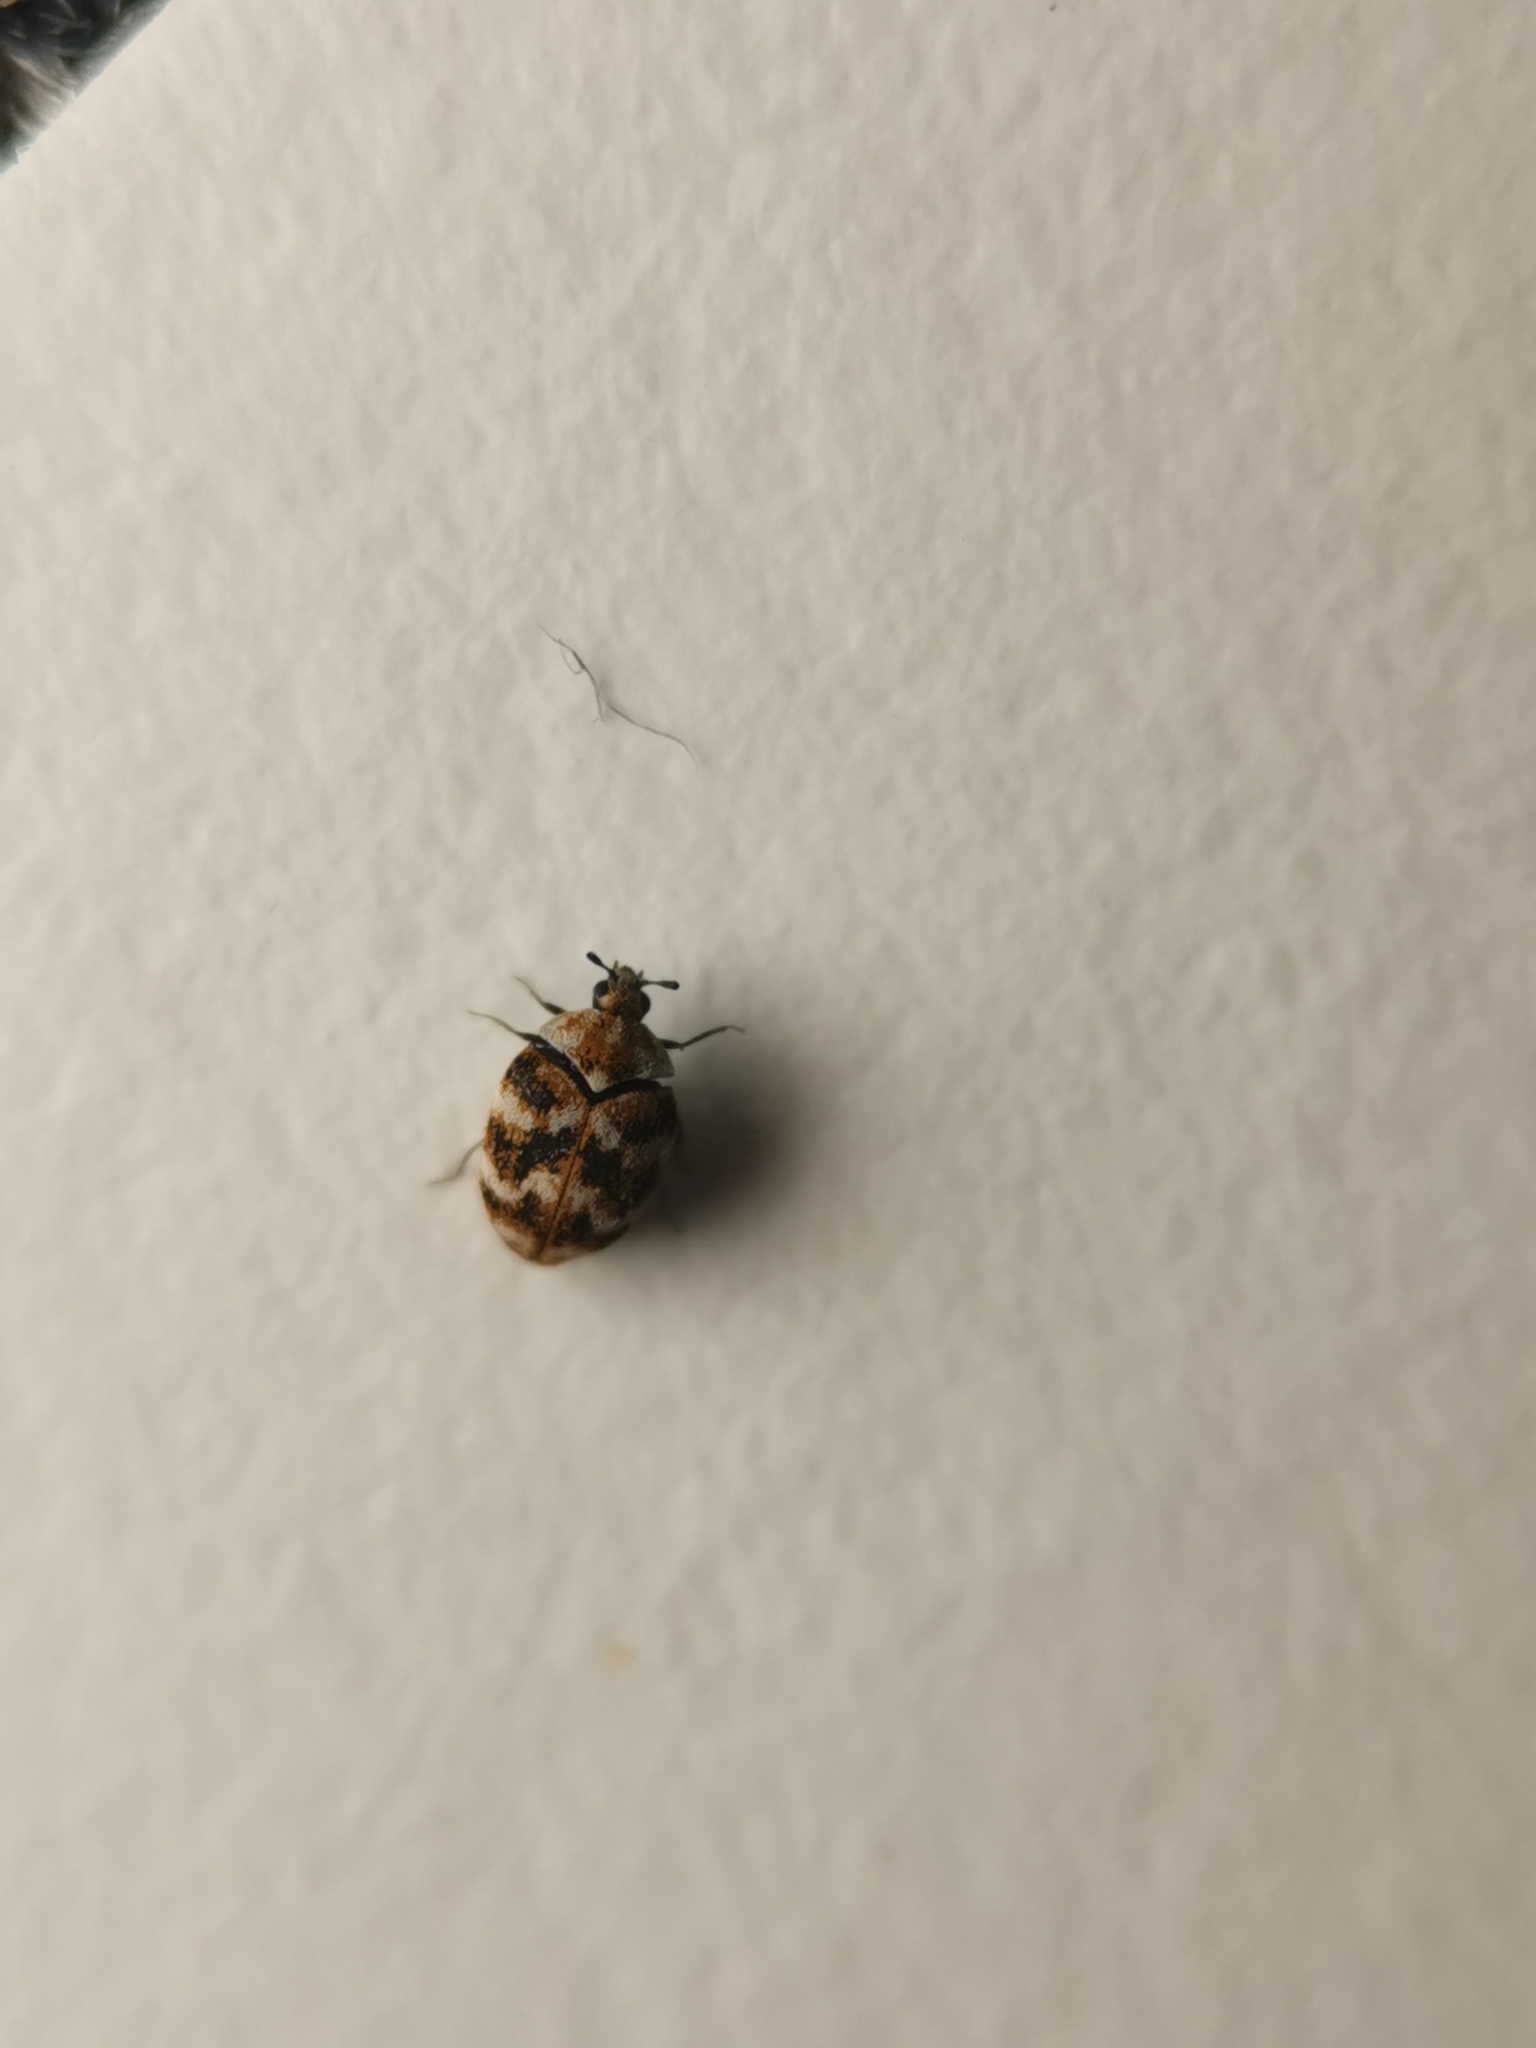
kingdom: Animalia
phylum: Arthropoda
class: Insecta
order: Coleoptera
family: Dermestidae
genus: Anthrenus
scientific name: Anthrenus verbasci
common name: Varied carpet beetle
